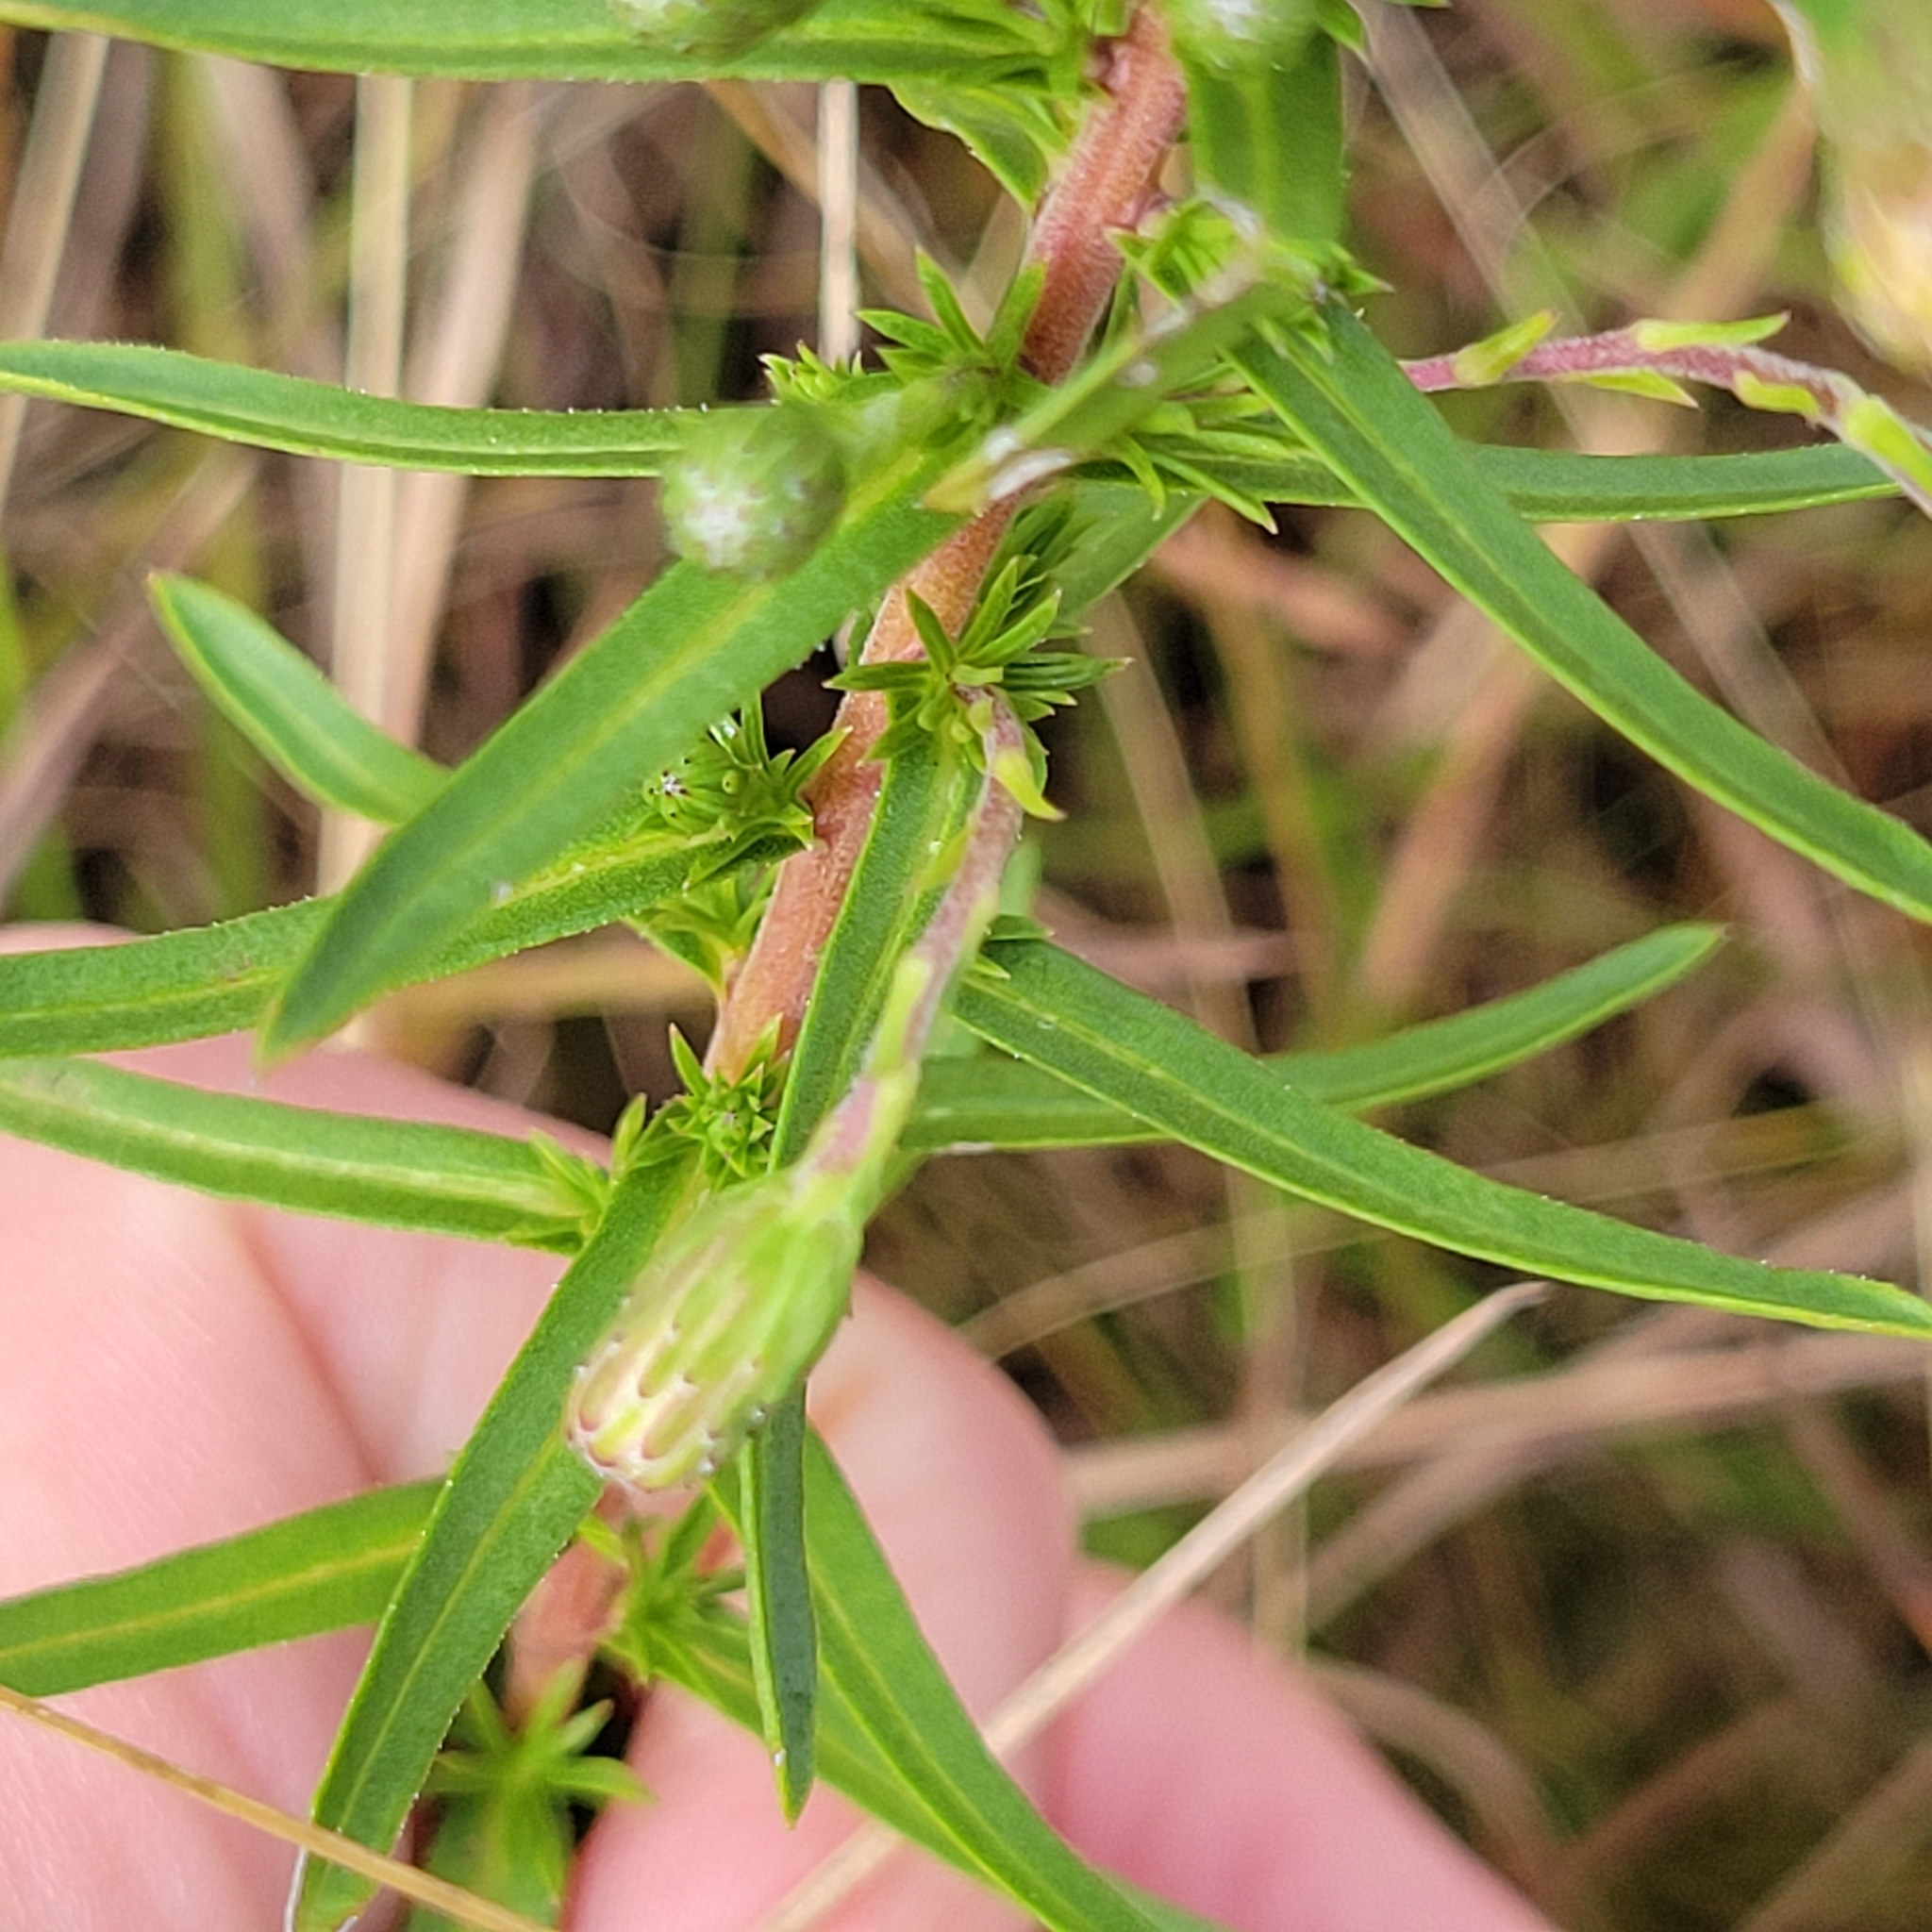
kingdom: Plantae
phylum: Tracheophyta
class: Magnoliopsida
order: Asterales
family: Asteraceae
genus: Ionactis
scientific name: Ionactis linariifolia
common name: Flax-leaf aster
